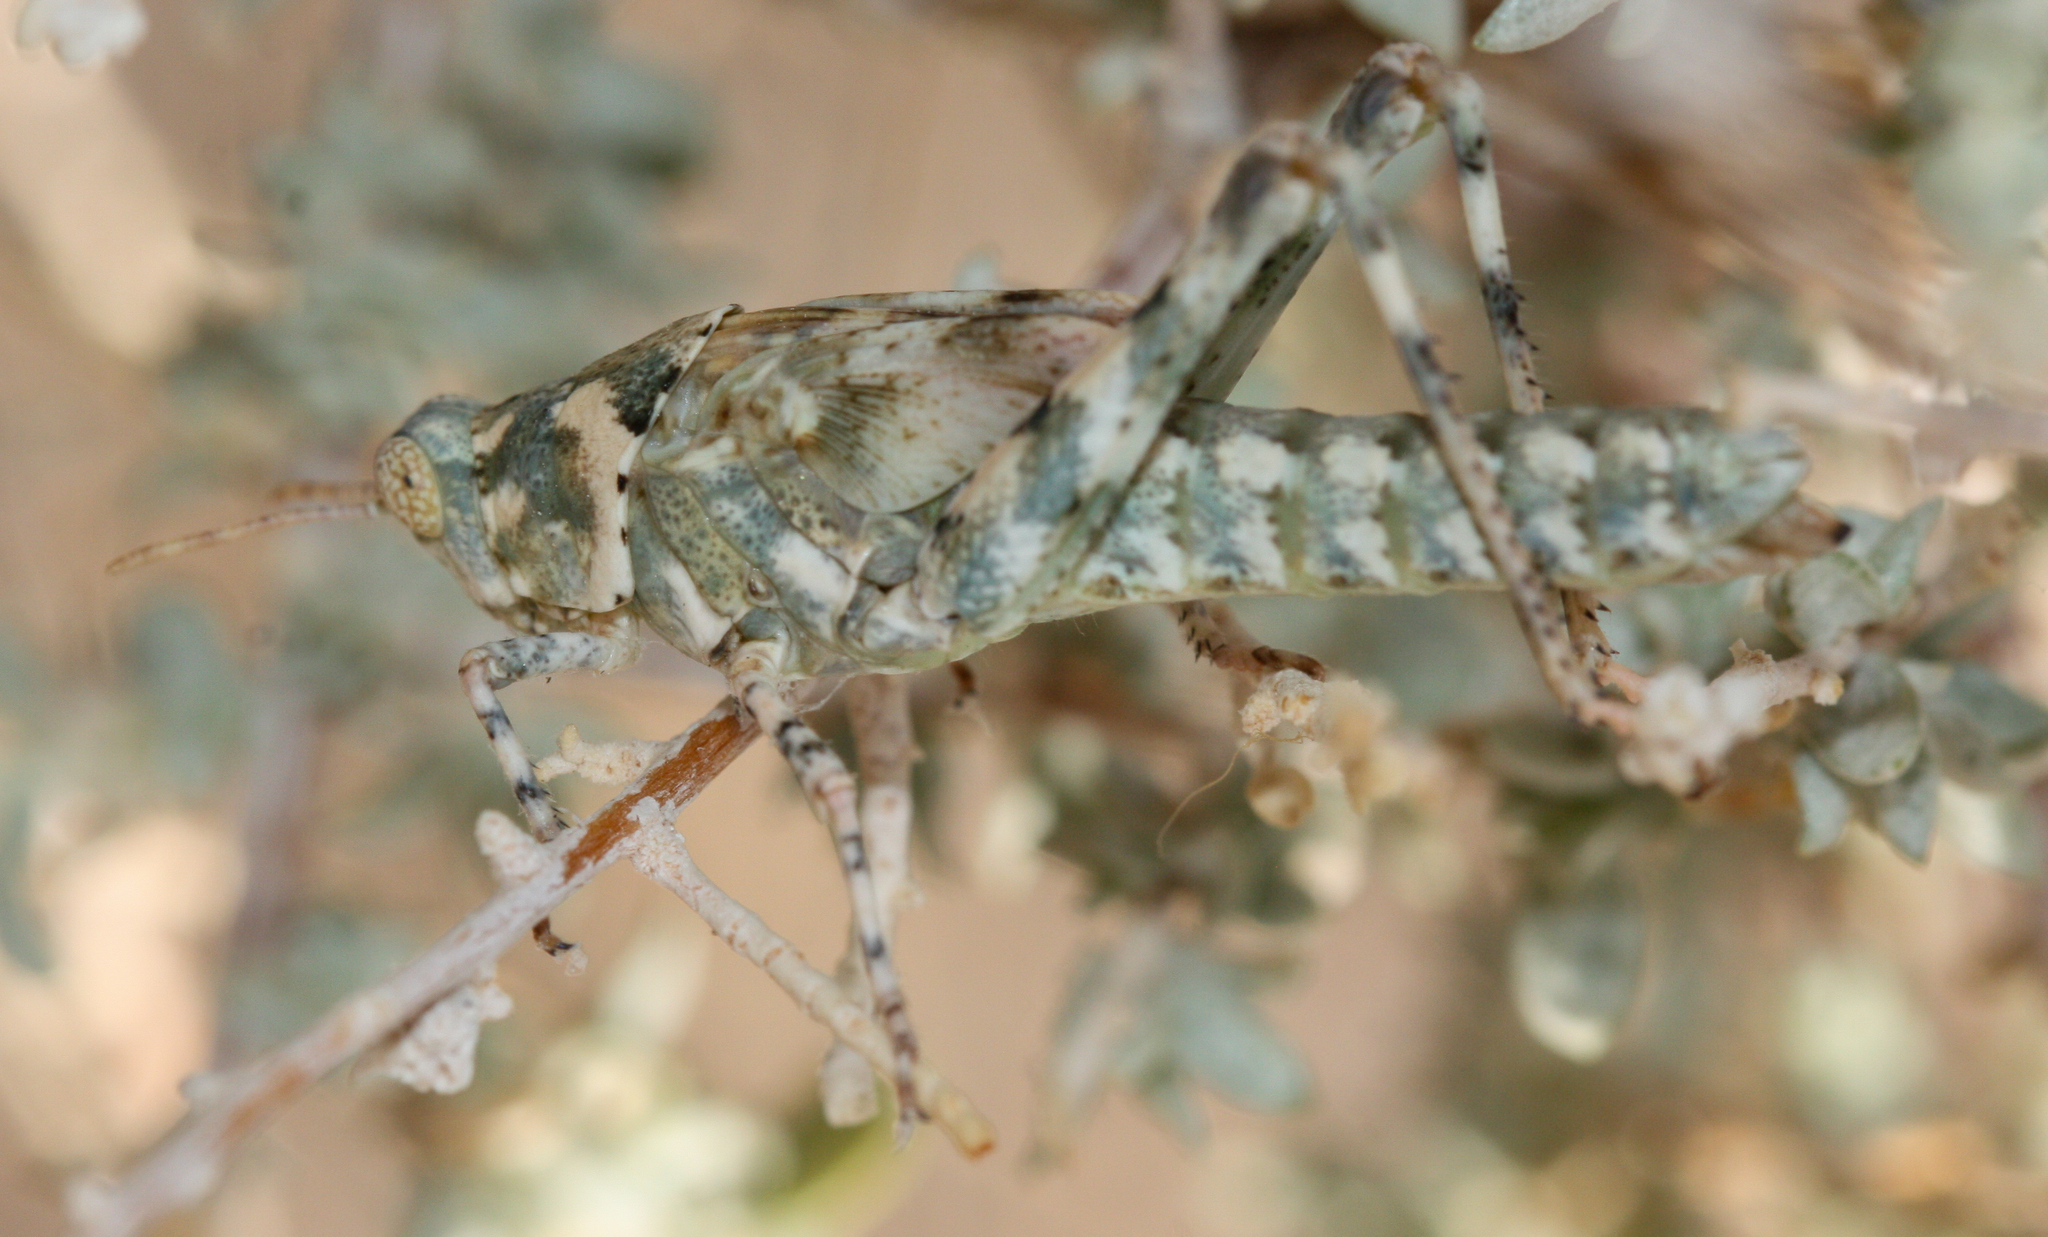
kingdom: Animalia
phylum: Arthropoda
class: Insecta
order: Orthoptera
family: Acrididae
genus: Anconia
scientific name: Anconia integra
